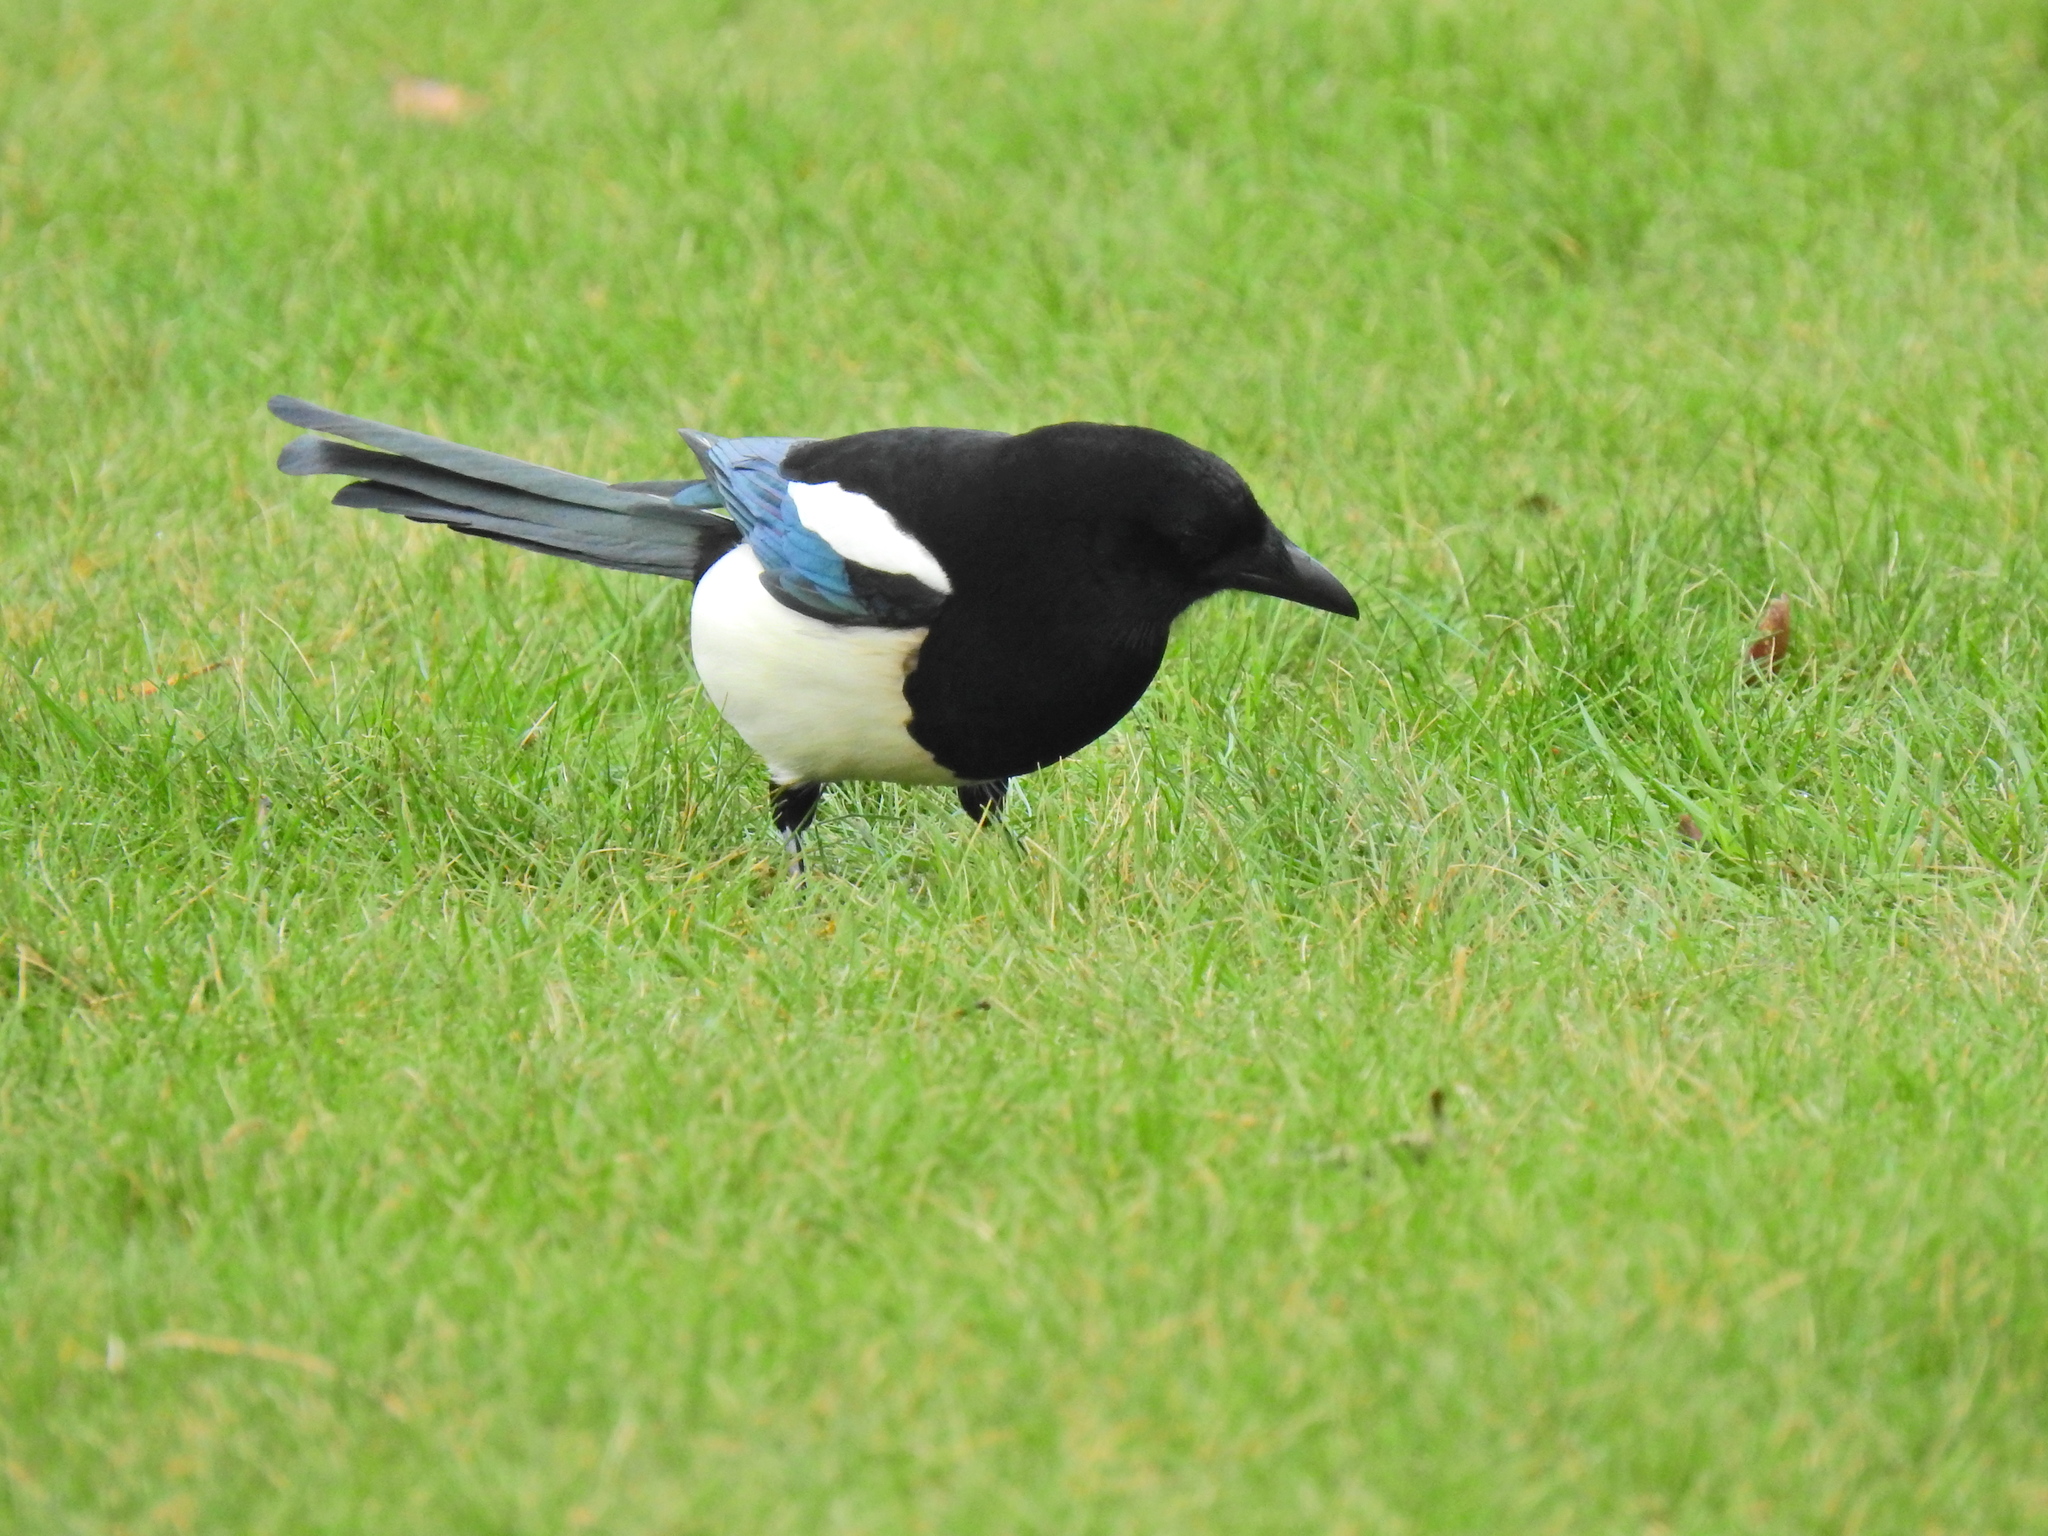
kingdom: Animalia
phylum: Chordata
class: Aves
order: Passeriformes
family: Corvidae
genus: Pica
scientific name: Pica pica
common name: Eurasian magpie
